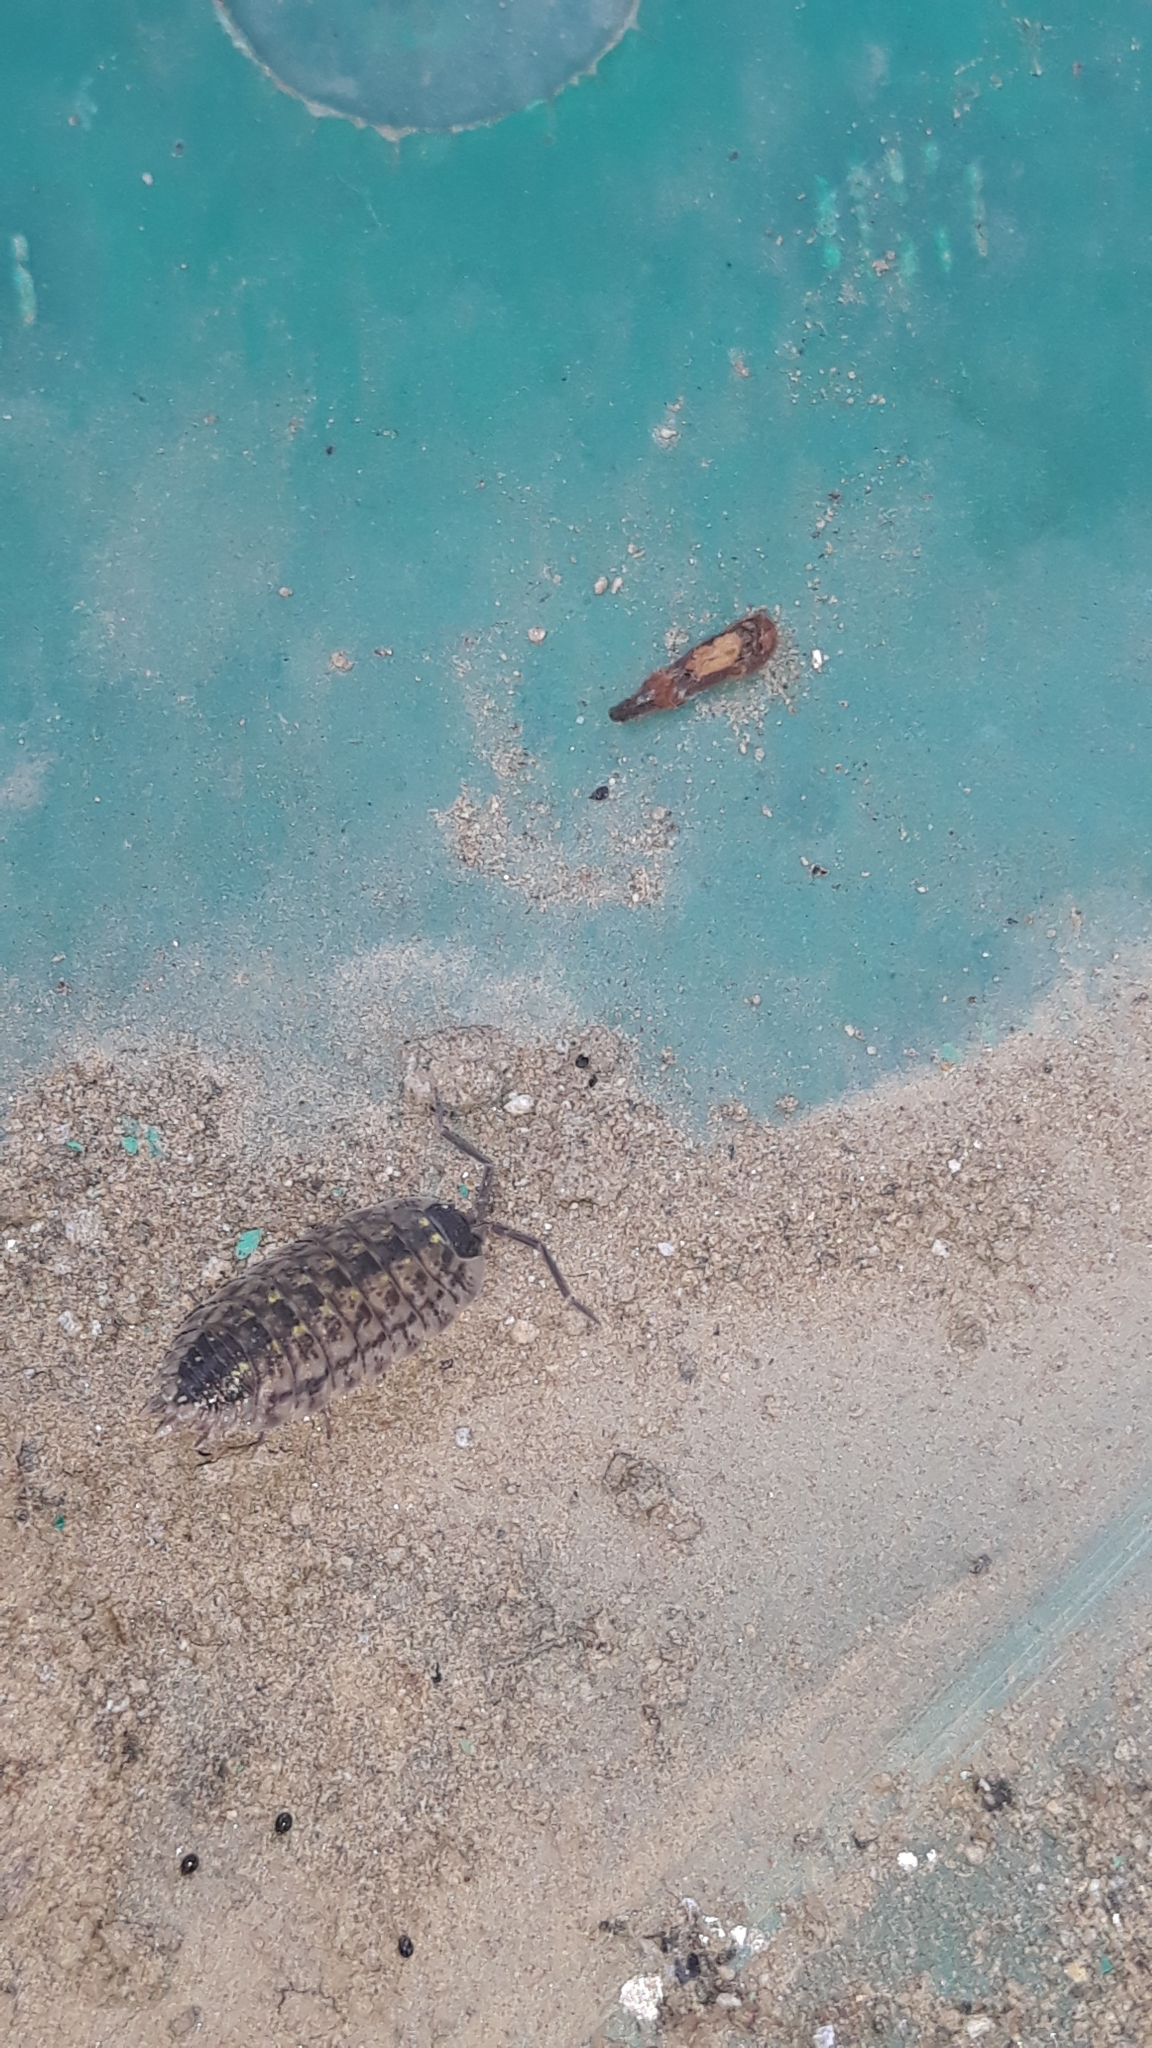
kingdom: Animalia
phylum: Arthropoda
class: Malacostraca
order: Isopoda
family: Porcellionidae
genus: Porcellio
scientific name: Porcellio spinicornis
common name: Painted woodlouse
